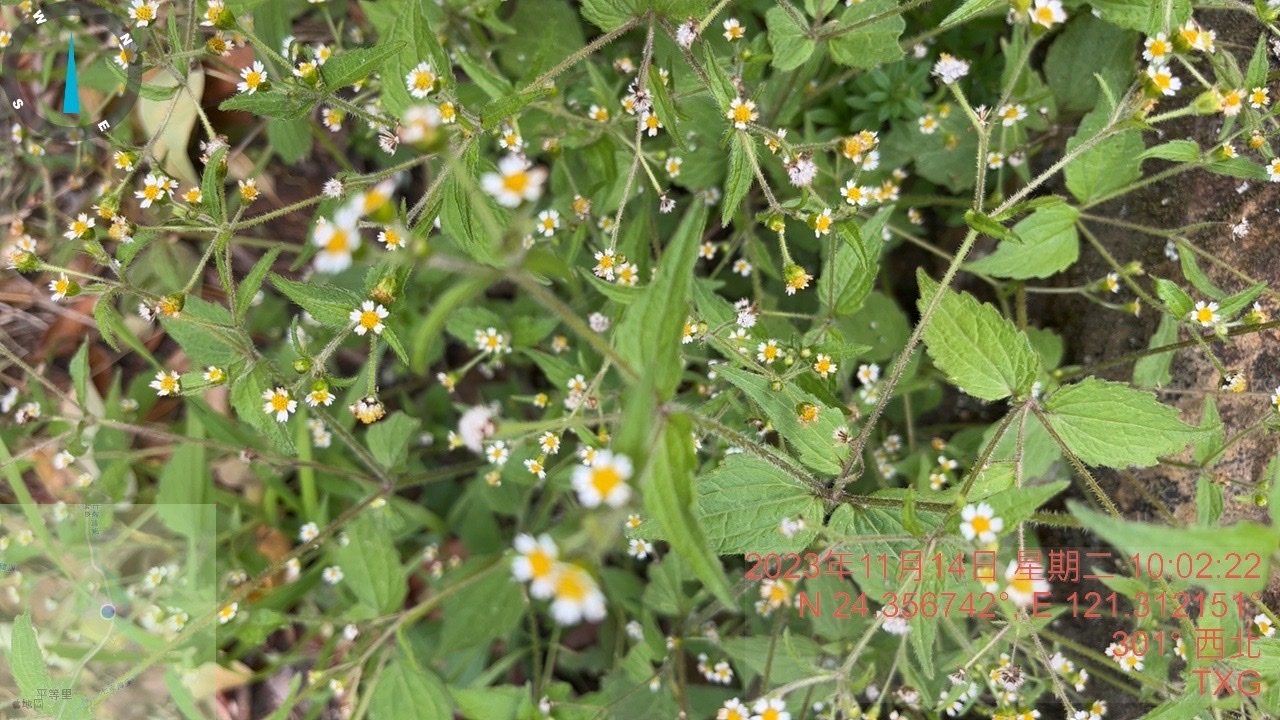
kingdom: Plantae
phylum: Tracheophyta
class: Magnoliopsida
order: Asterales
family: Asteraceae
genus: Galinsoga
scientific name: Galinsoga quadriradiata
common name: Shaggy soldier
